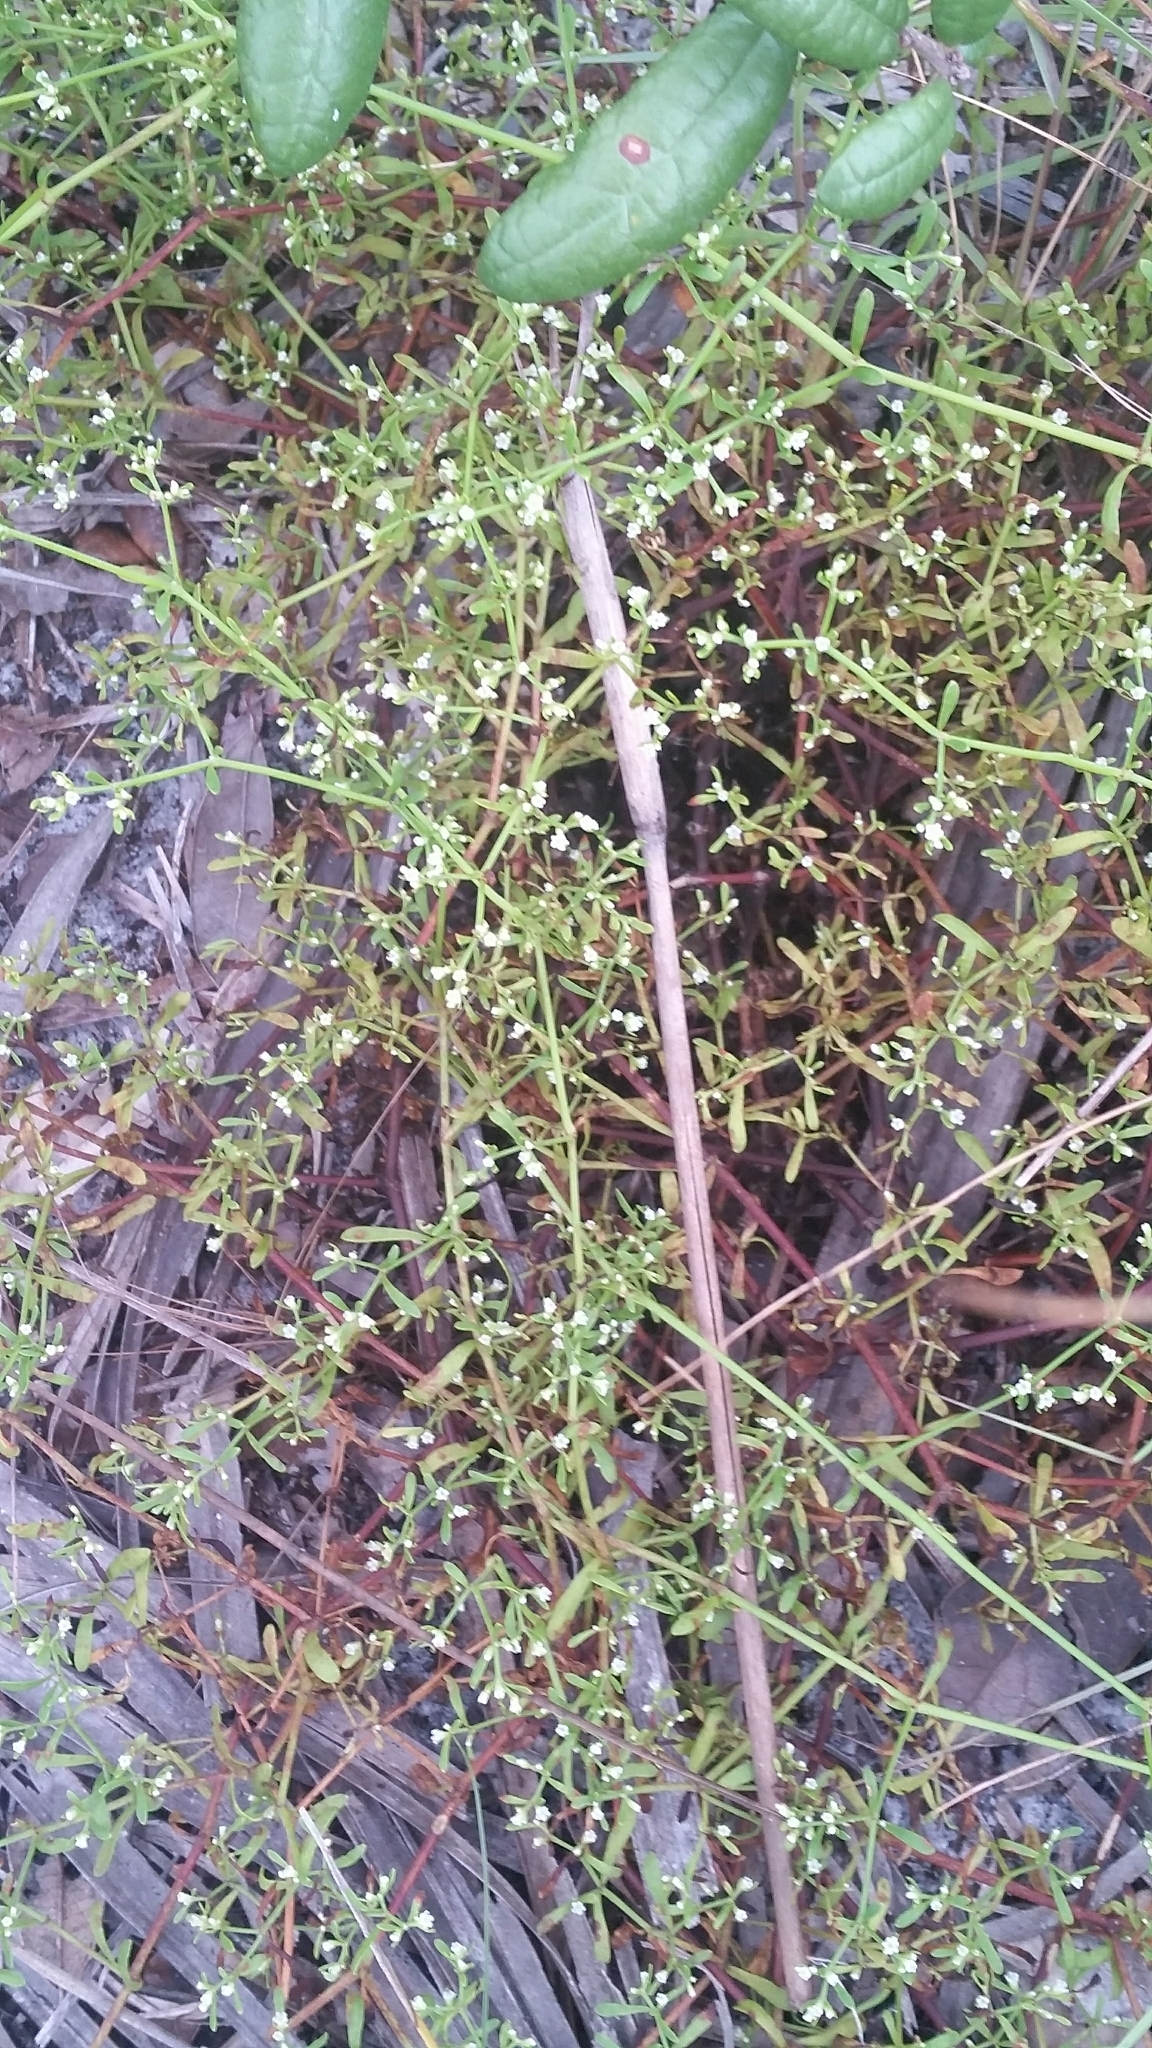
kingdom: Plantae
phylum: Tracheophyta
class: Magnoliopsida
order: Caryophyllales
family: Caryophyllaceae
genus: Paronychia
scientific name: Paronychia americana
